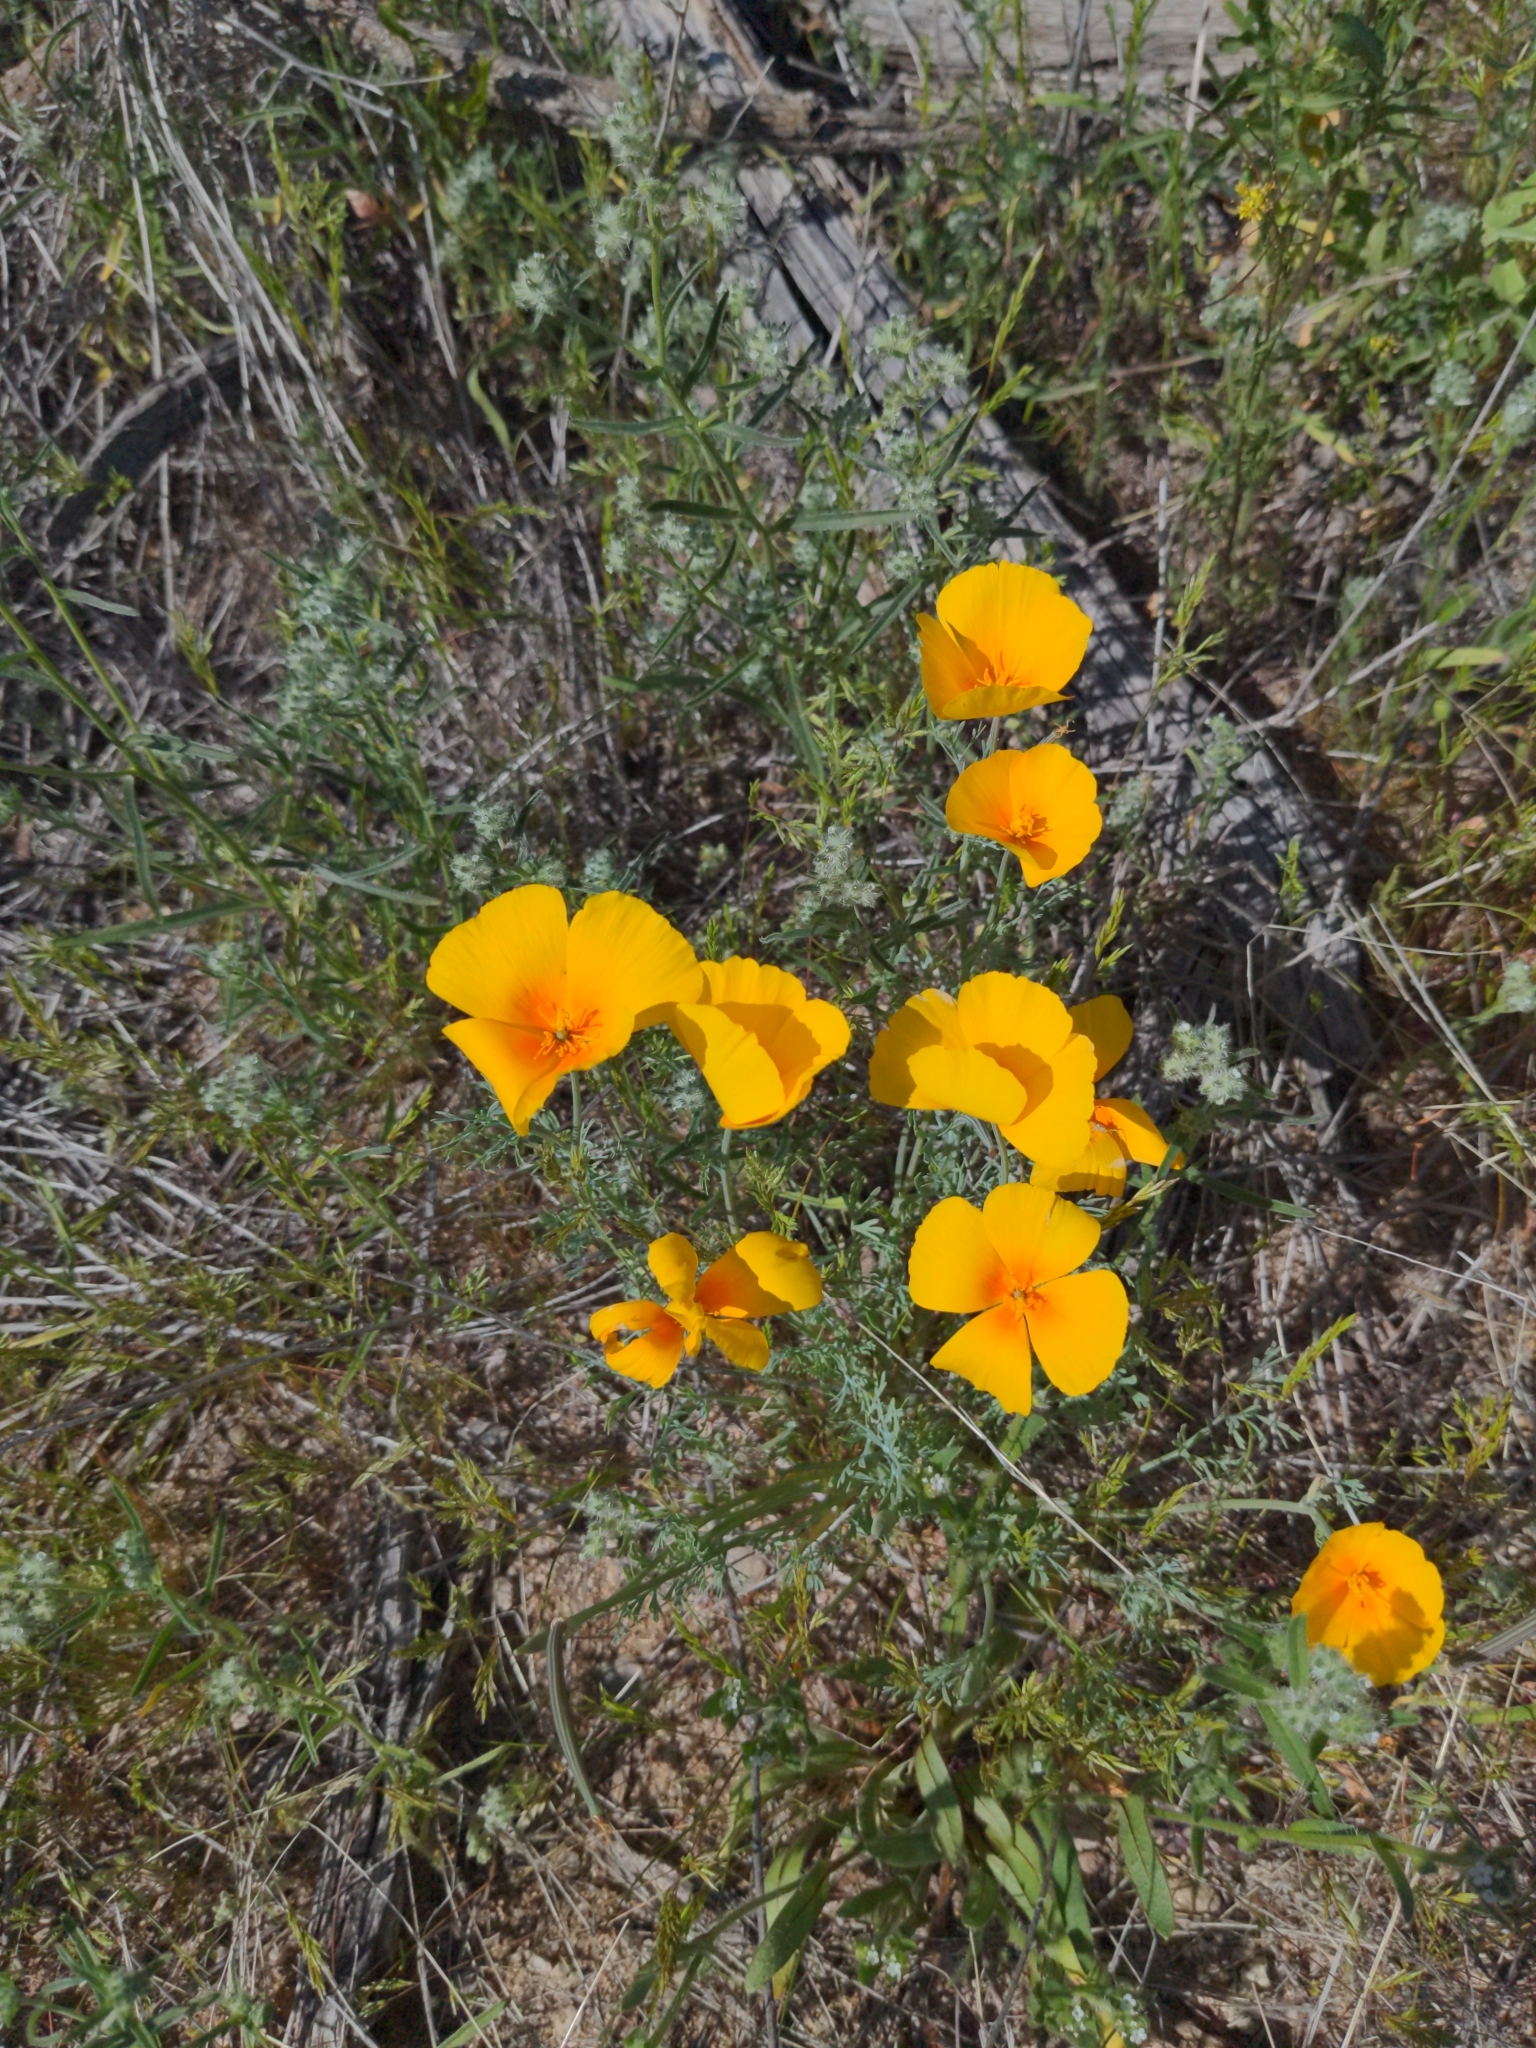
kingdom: Plantae
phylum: Tracheophyta
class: Magnoliopsida
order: Ranunculales
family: Papaveraceae
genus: Eschscholzia
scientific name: Eschscholzia californica
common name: California poppy
